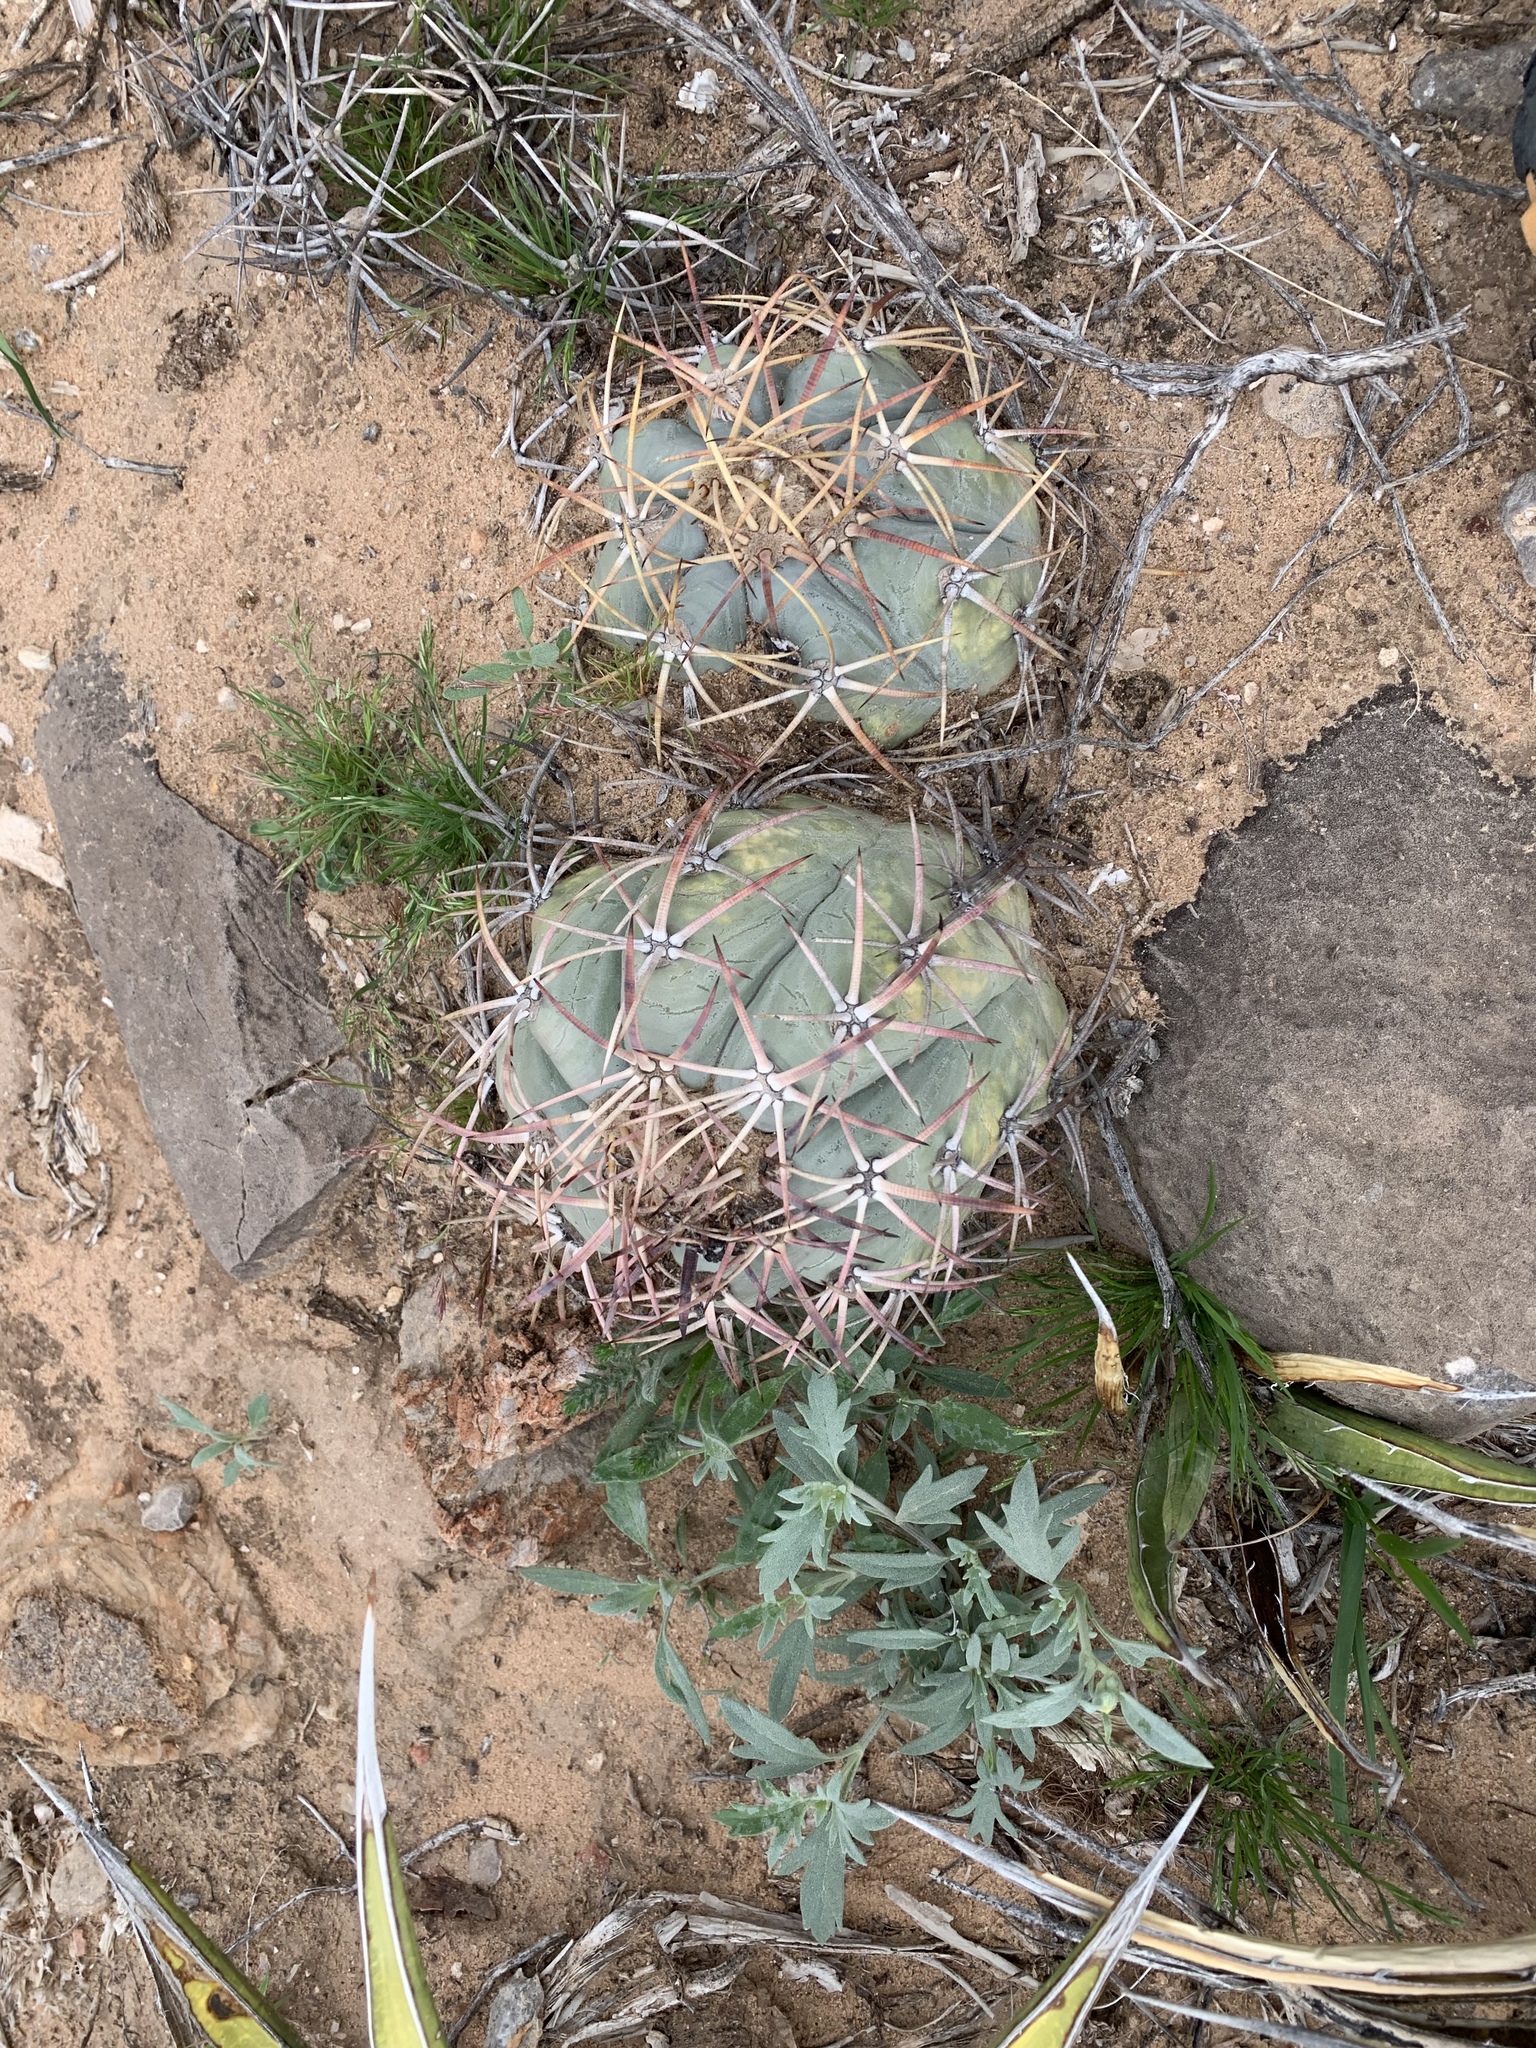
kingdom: Plantae
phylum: Tracheophyta
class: Magnoliopsida
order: Caryophyllales
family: Cactaceae
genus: Echinocactus
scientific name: Echinocactus horizonthalonius
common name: Devilshead
